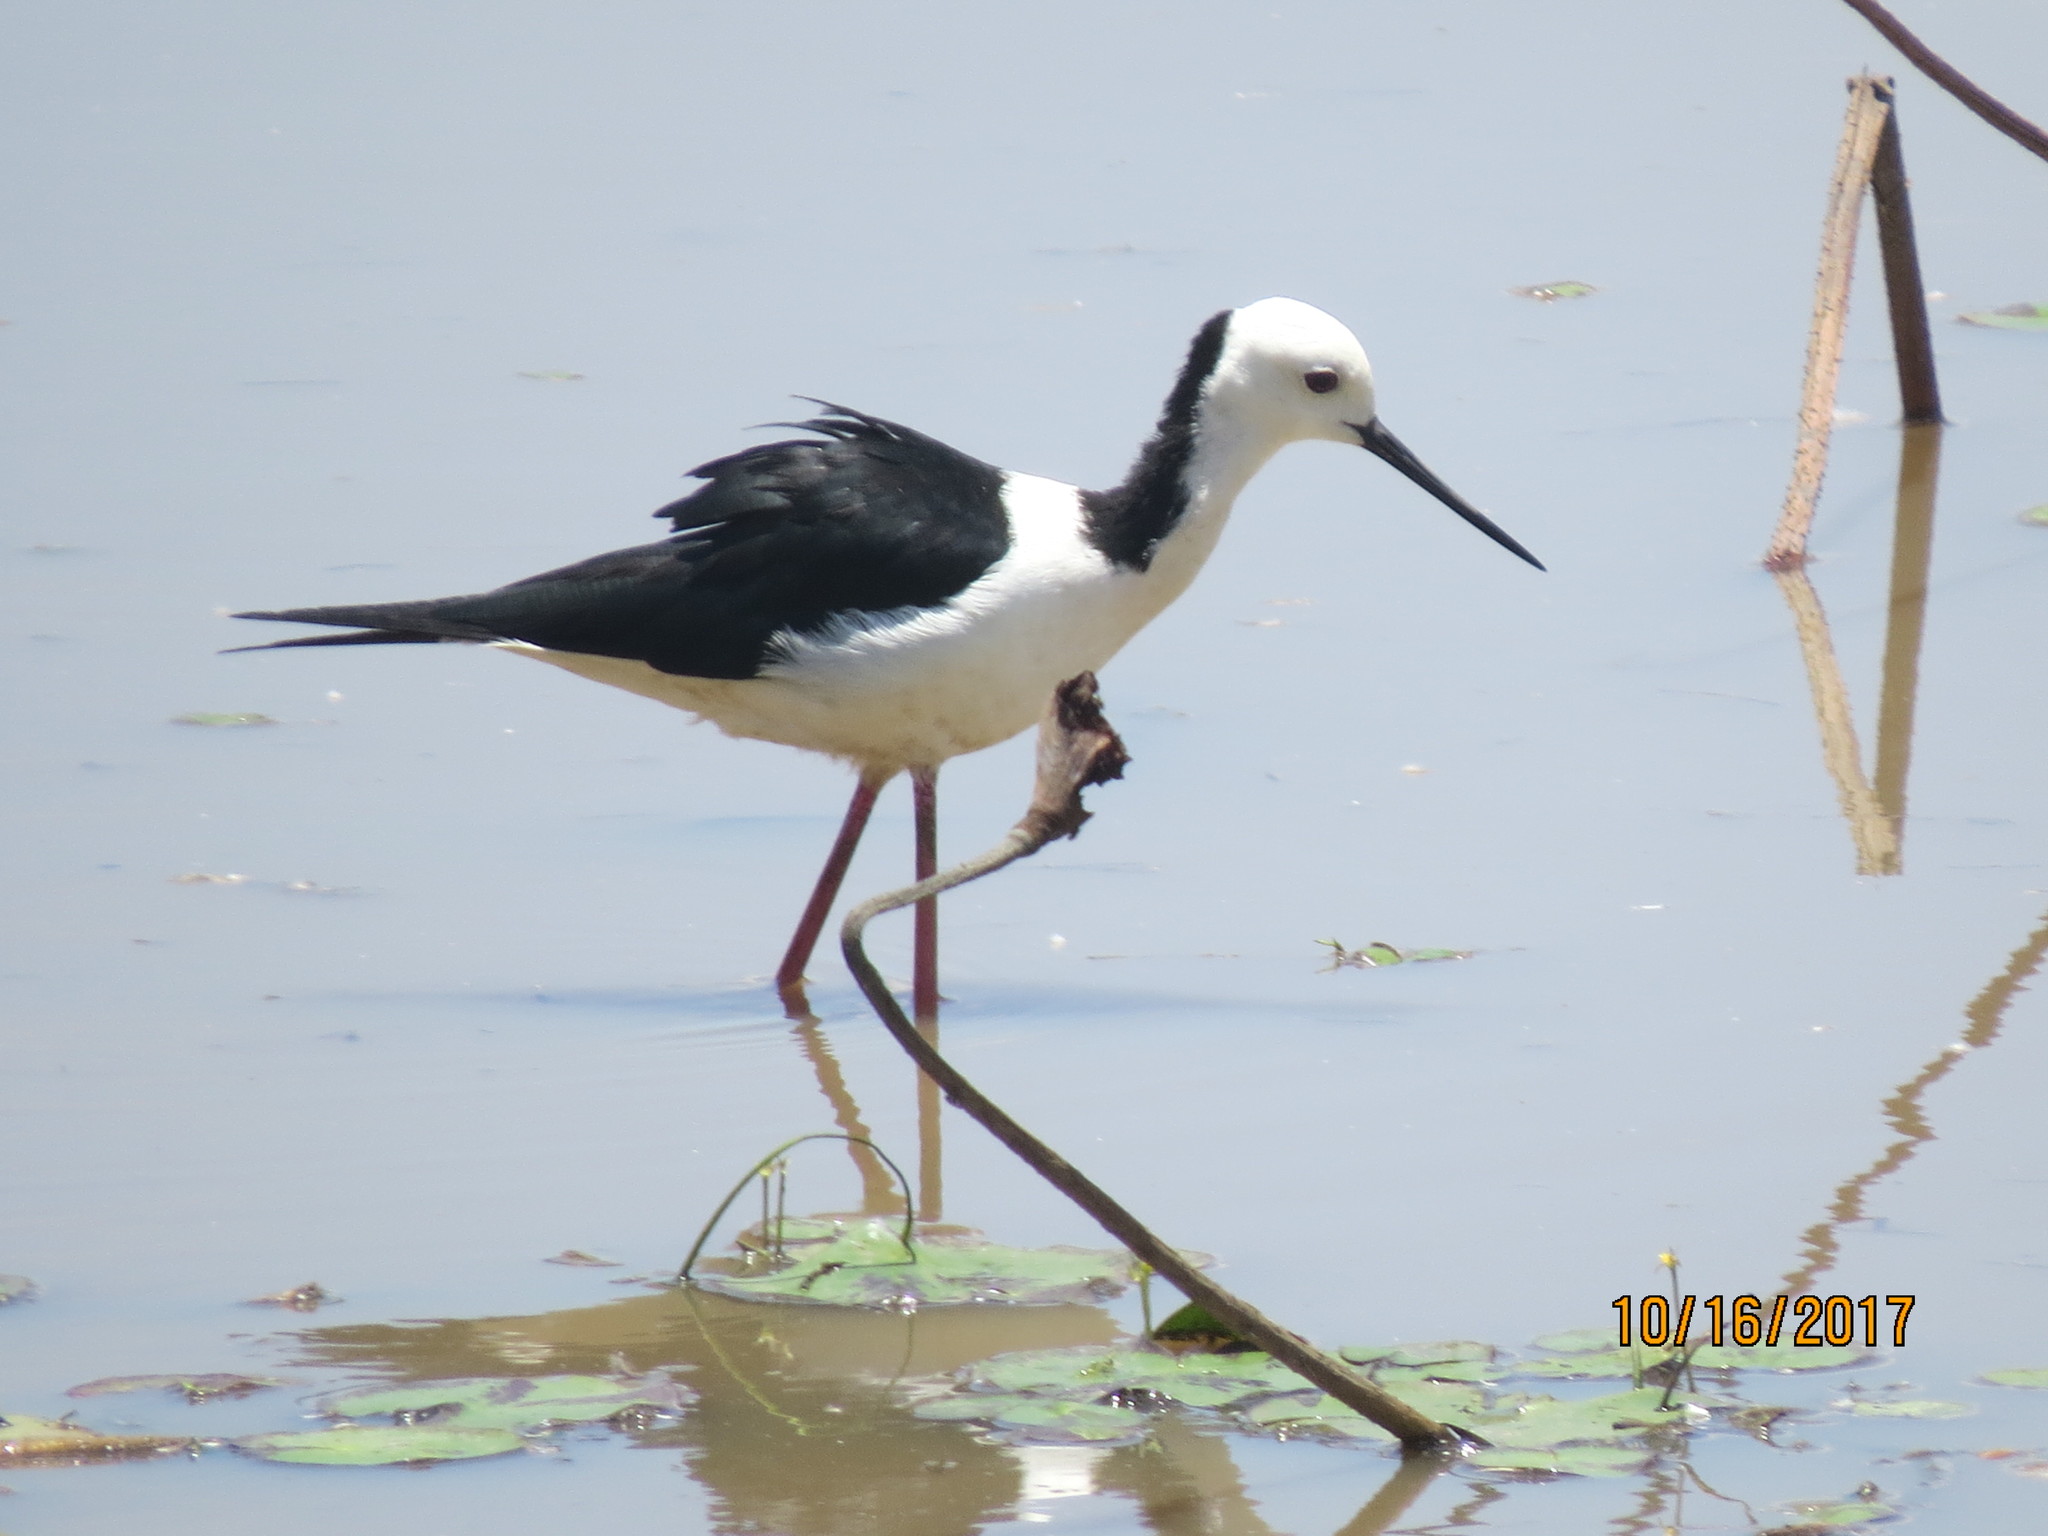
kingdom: Animalia
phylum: Chordata
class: Aves
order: Charadriiformes
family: Recurvirostridae
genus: Himantopus
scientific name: Himantopus leucocephalus
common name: White-headed stilt
